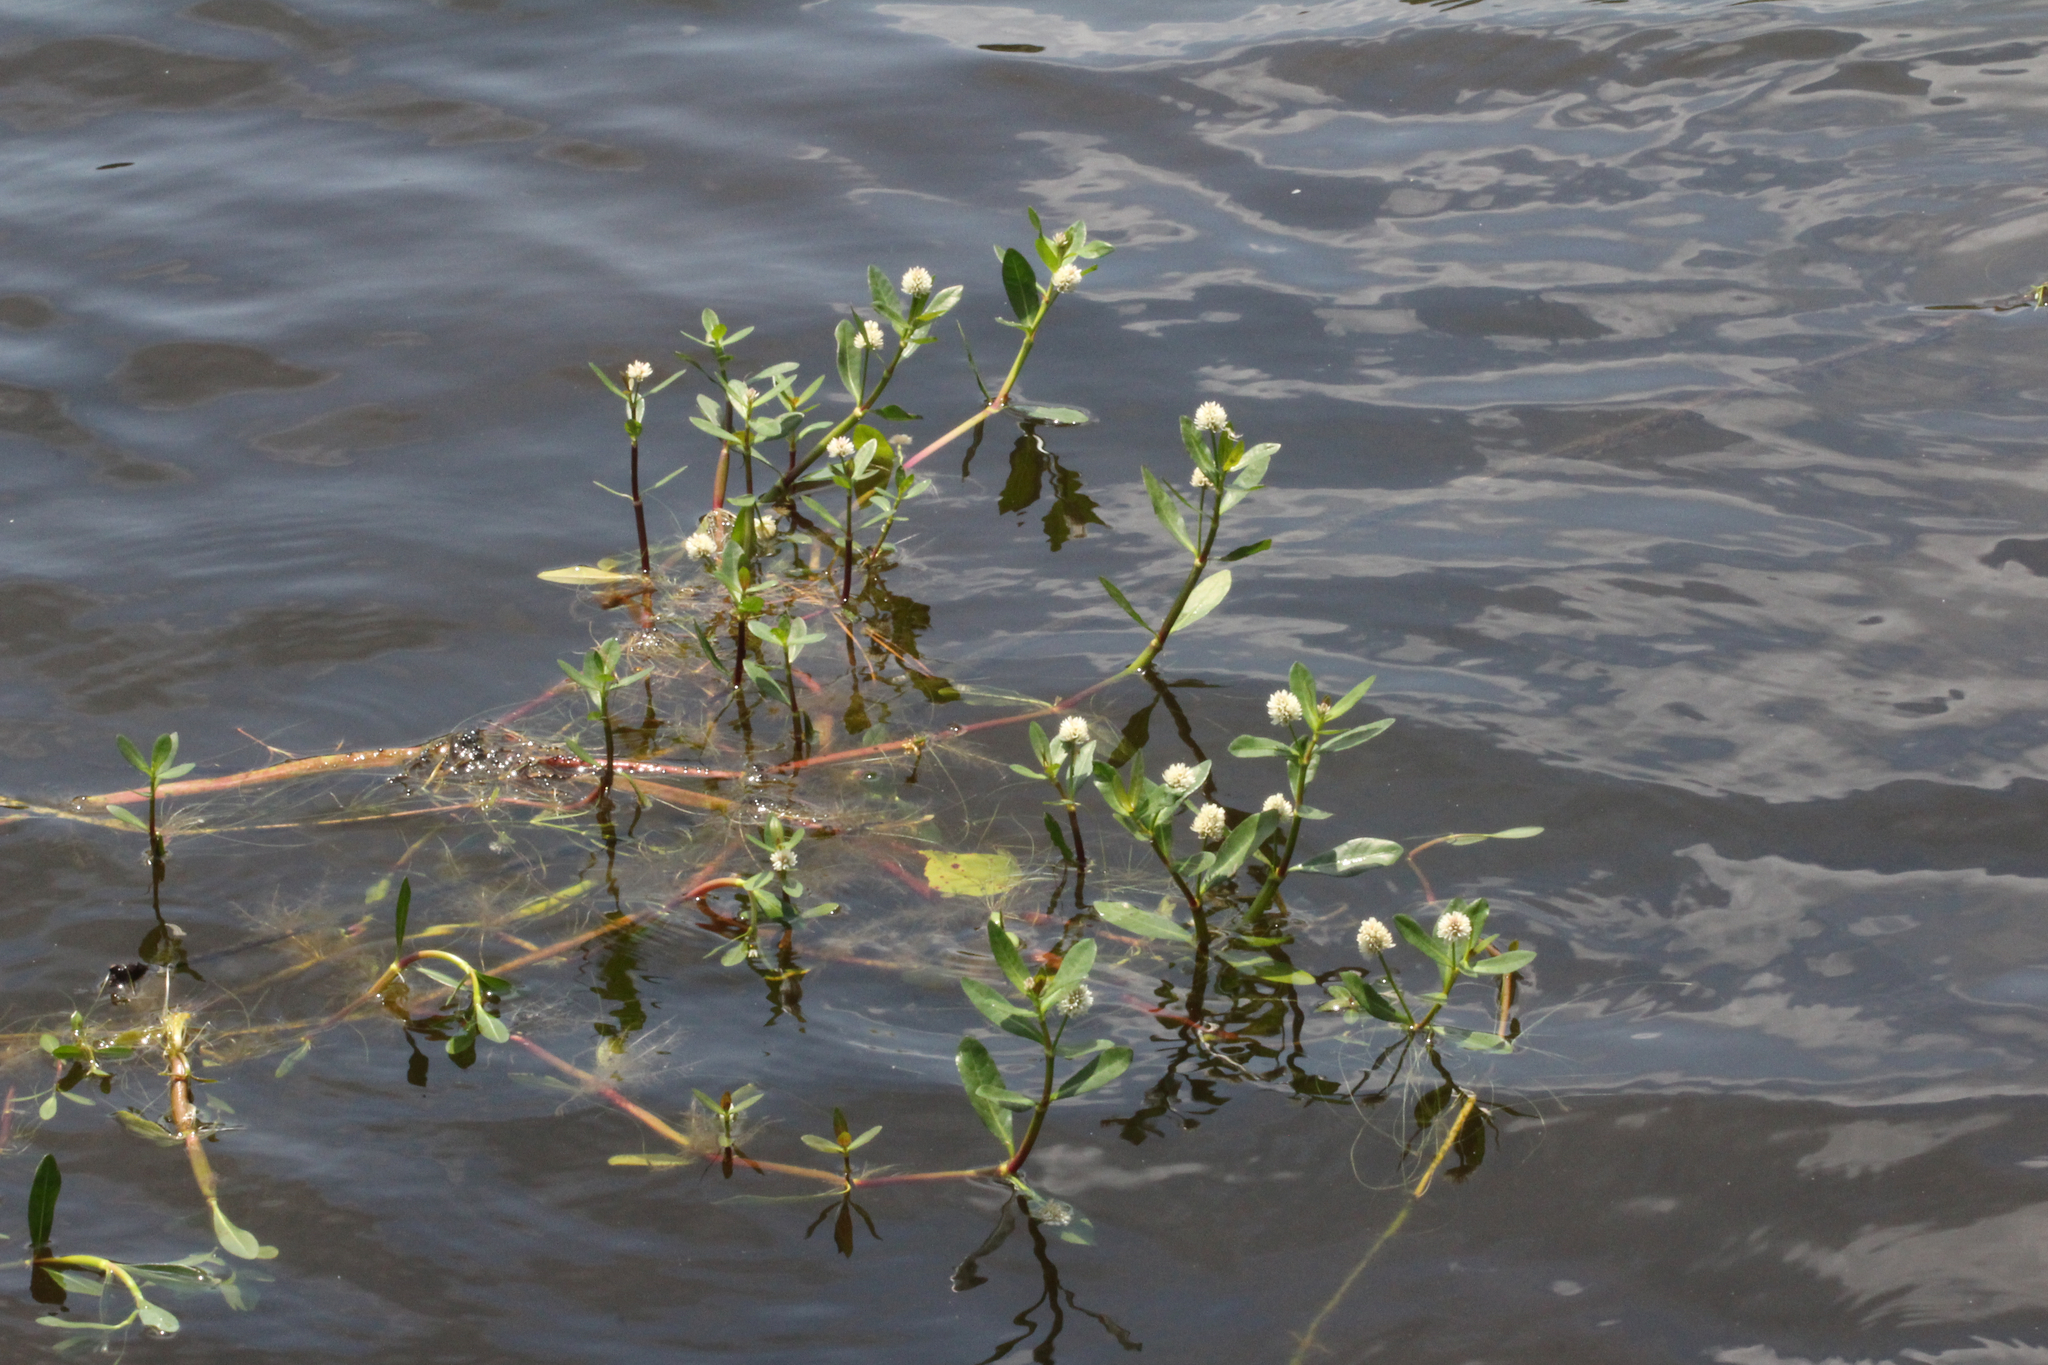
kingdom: Plantae
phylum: Tracheophyta
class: Magnoliopsida
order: Caryophyllales
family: Amaranthaceae
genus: Alternanthera
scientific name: Alternanthera philoxeroides
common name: Alligatorweed
